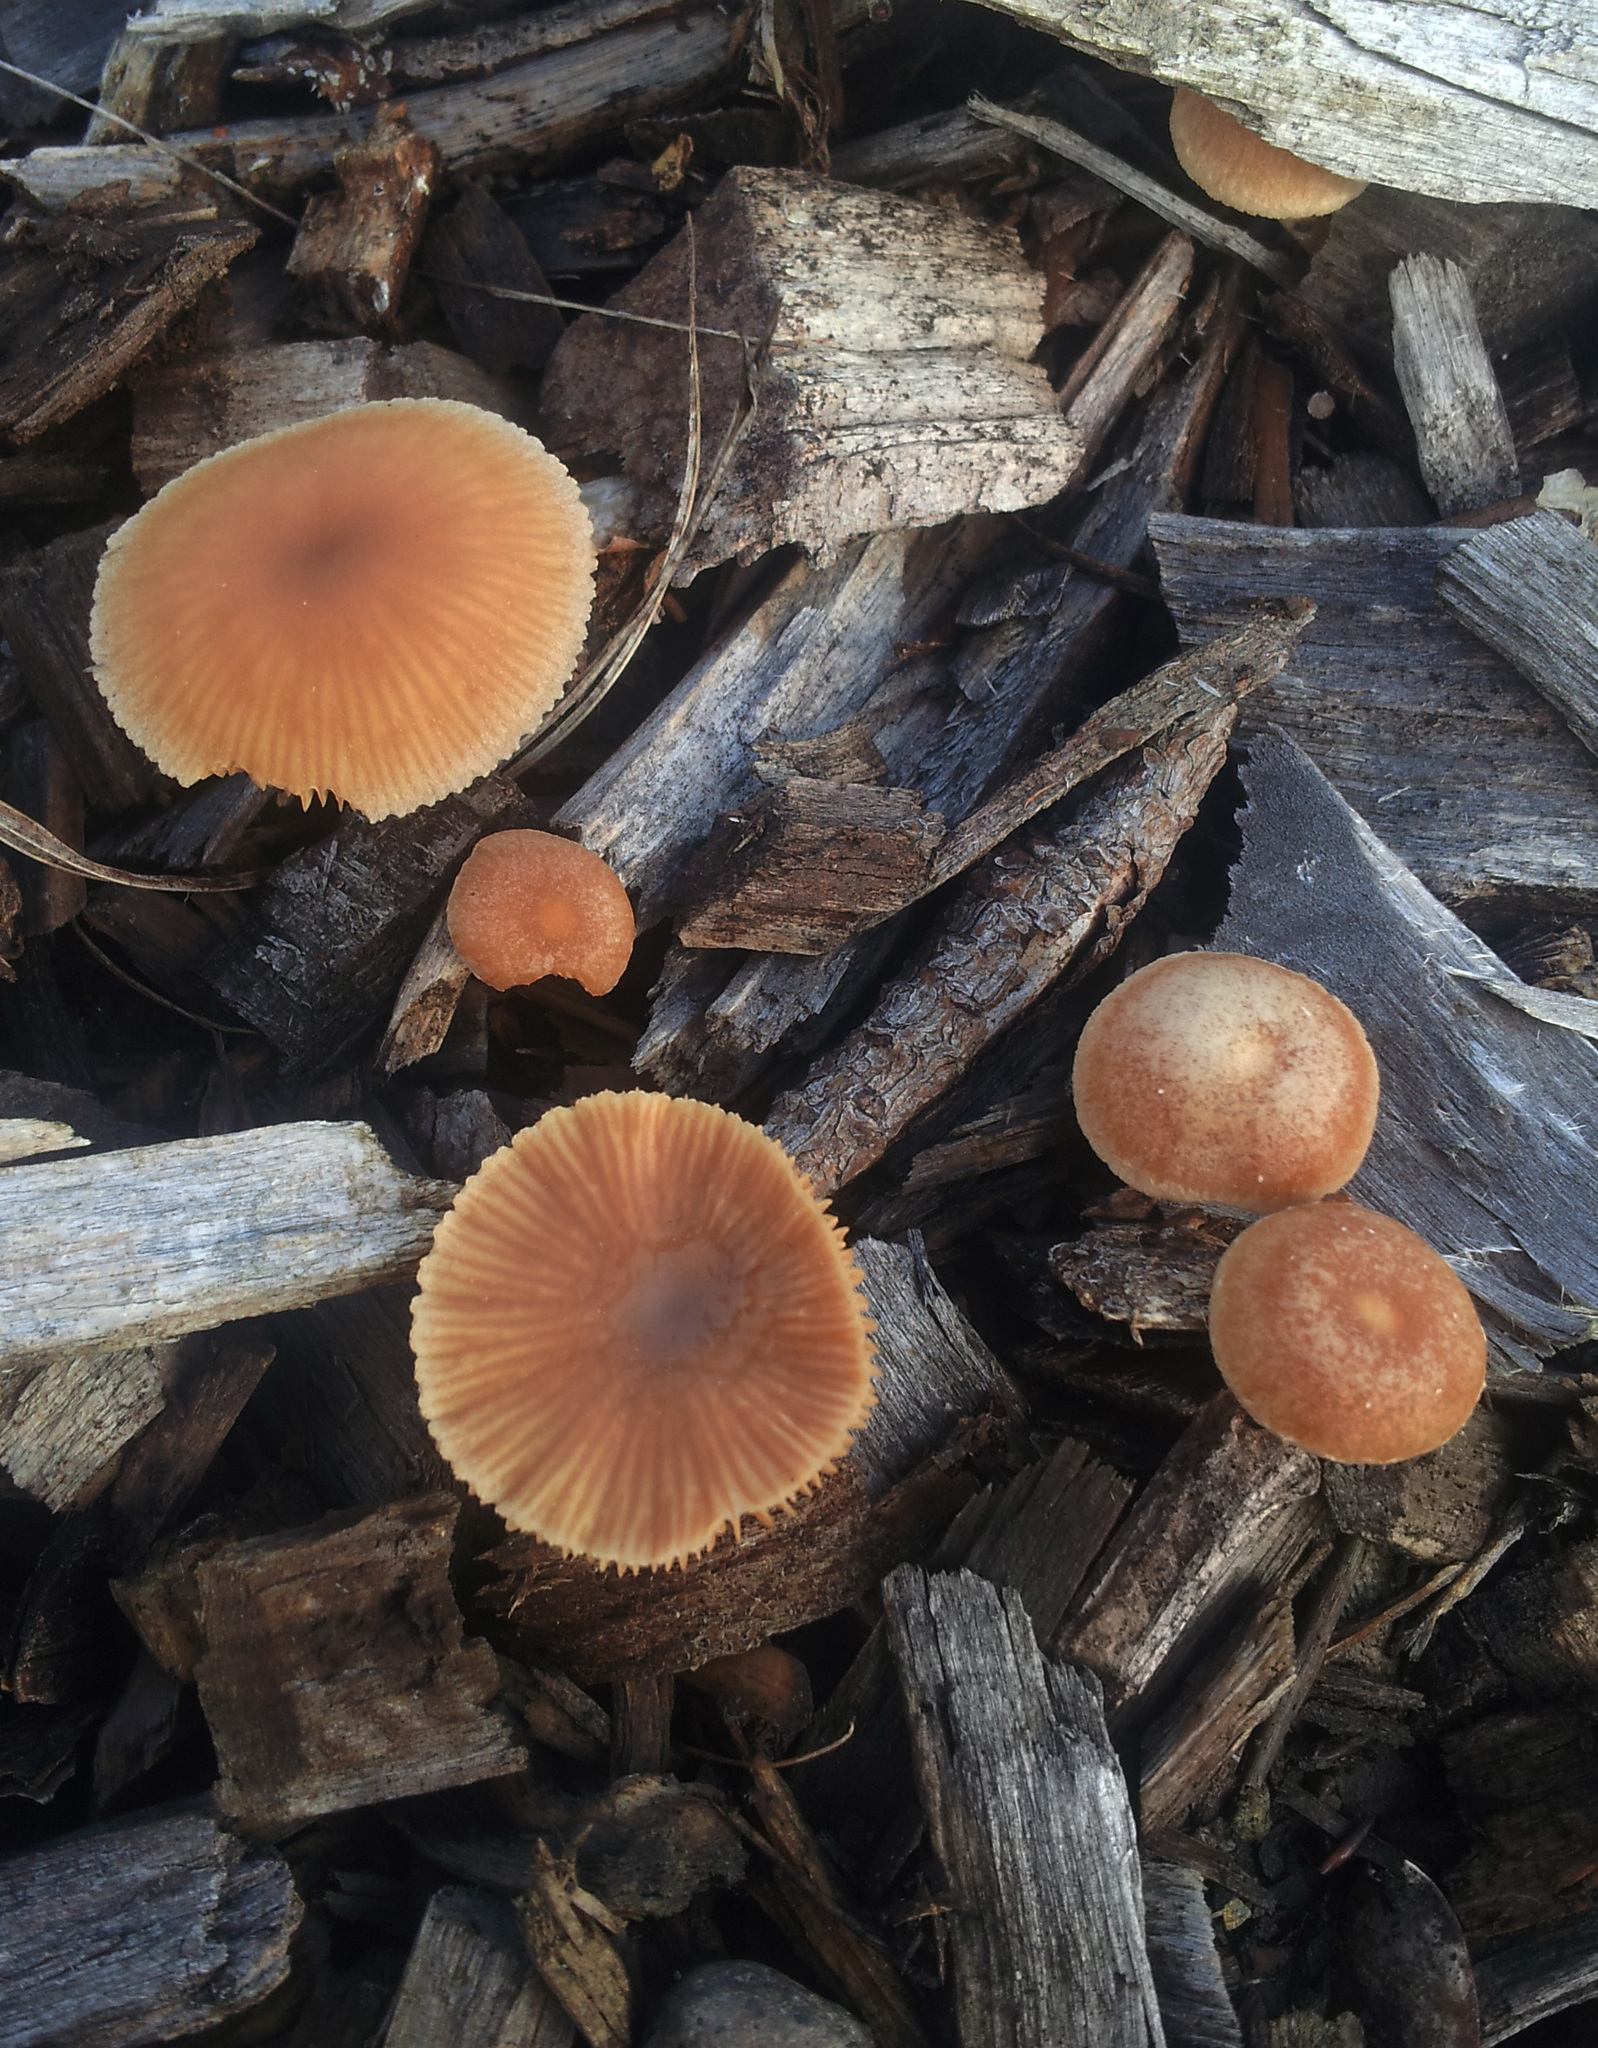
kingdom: Fungi
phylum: Basidiomycota
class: Agaricomycetes
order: Agaricales
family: Tubariaceae
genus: Tubaria
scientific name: Tubaria furfuracea
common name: Scurfy twiglet
